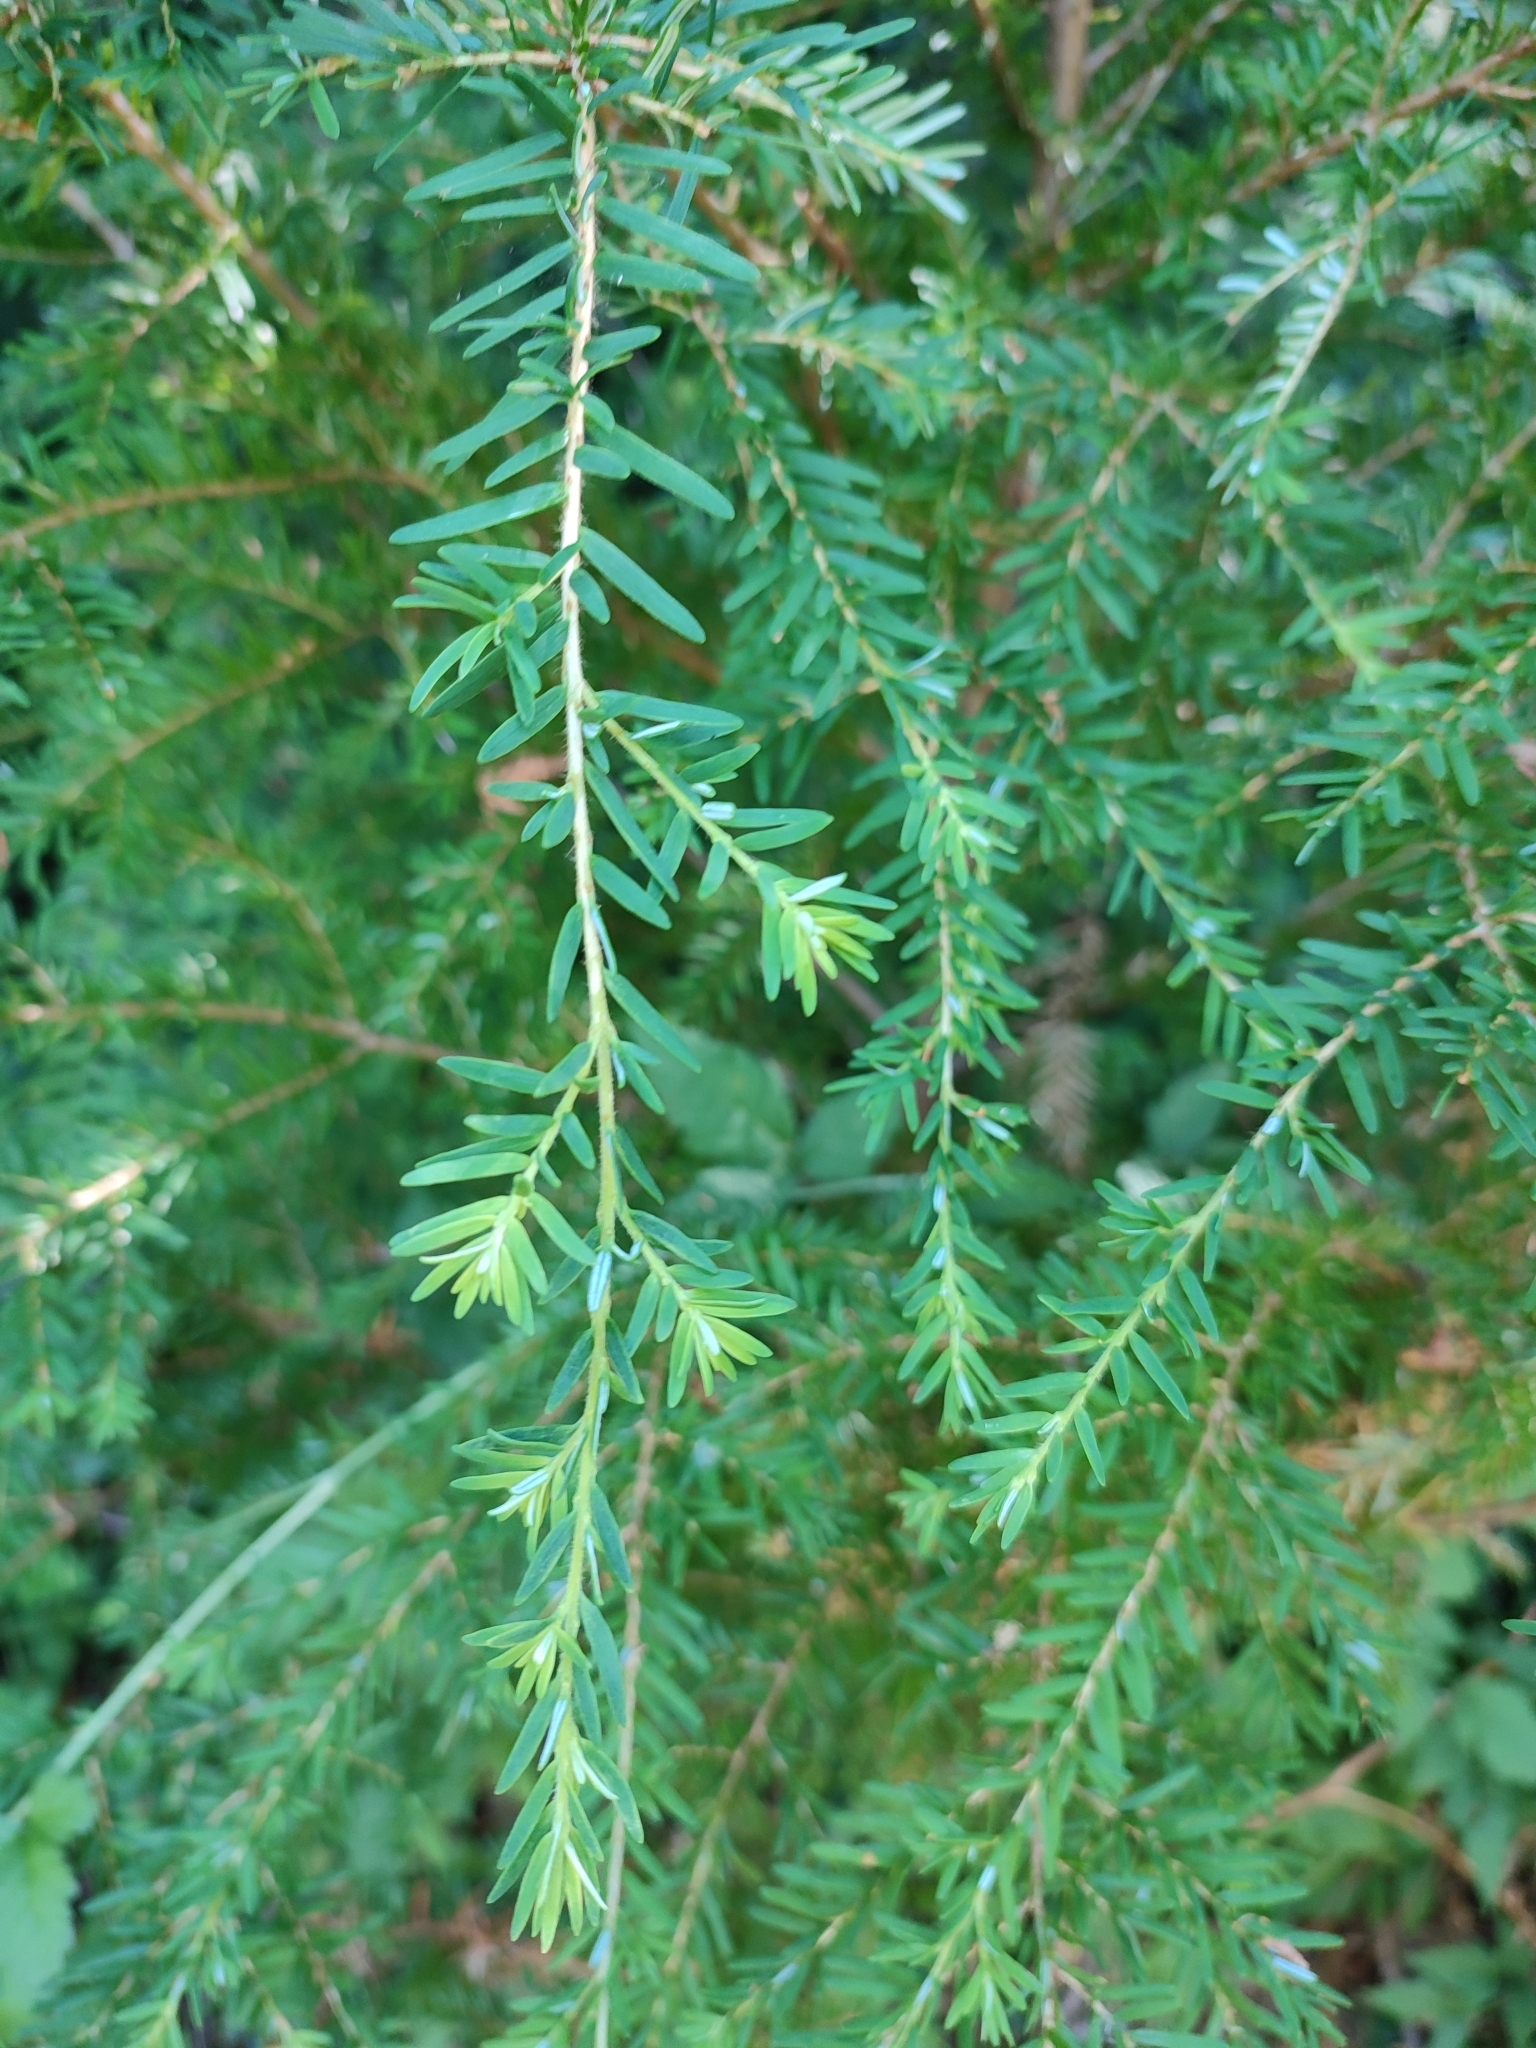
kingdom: Plantae
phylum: Tracheophyta
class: Pinopsida
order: Pinales
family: Pinaceae
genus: Tsuga
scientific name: Tsuga heterophylla
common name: Western hemlock
